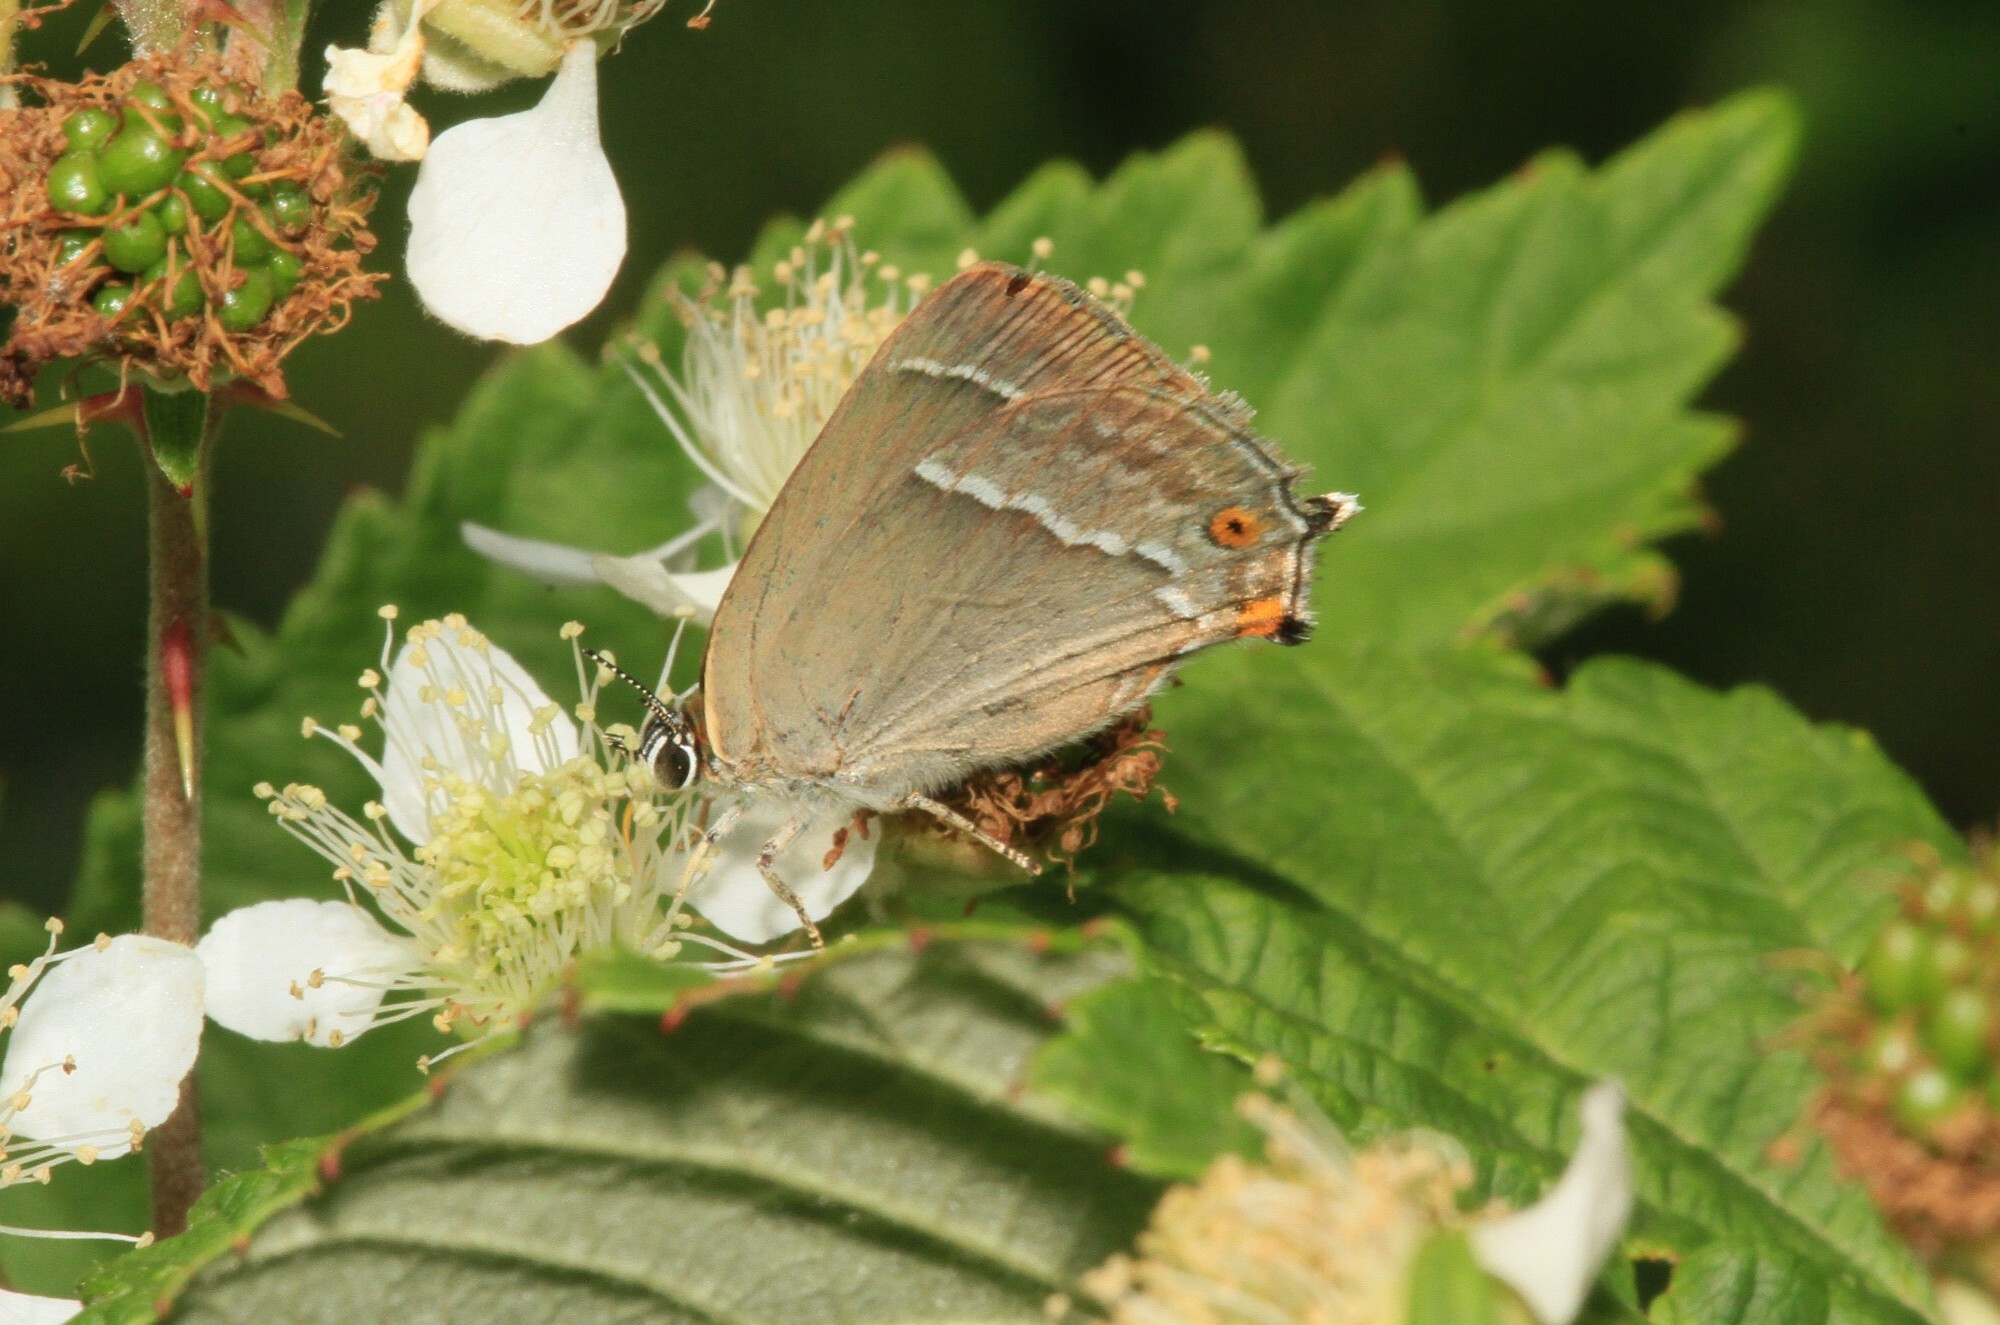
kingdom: Animalia
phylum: Arthropoda
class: Insecta
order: Lepidoptera
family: Lycaenidae
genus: Quercusia
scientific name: Quercusia quercus
